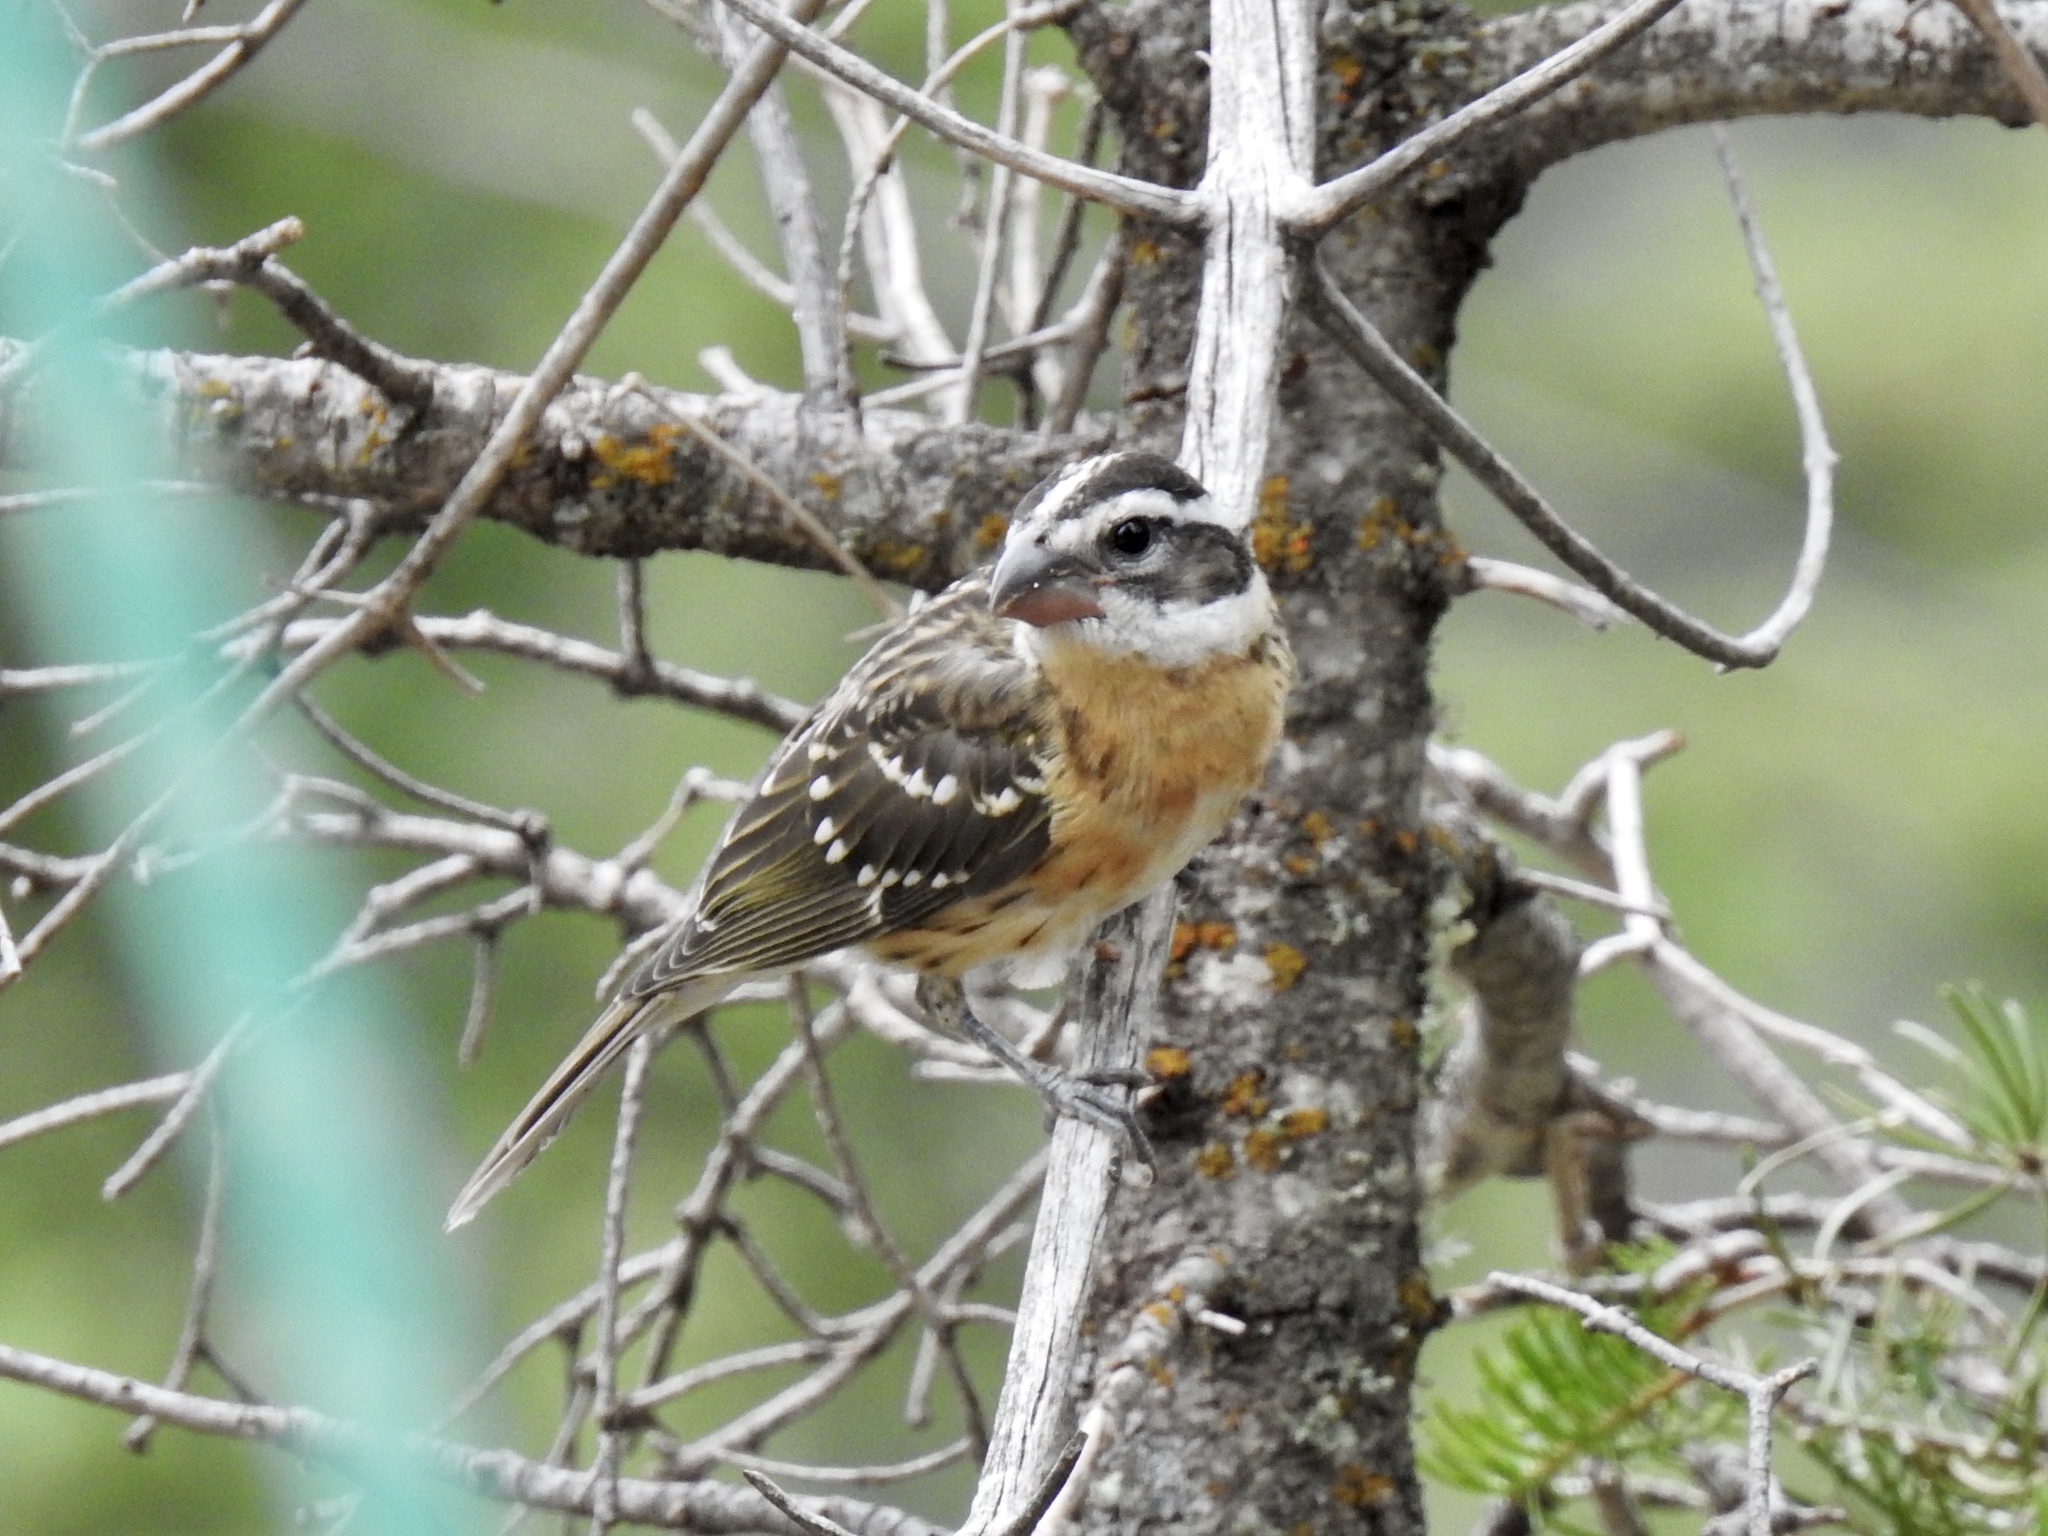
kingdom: Animalia
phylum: Chordata
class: Aves
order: Passeriformes
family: Cardinalidae
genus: Pheucticus
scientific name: Pheucticus melanocephalus
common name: Black-headed grosbeak
